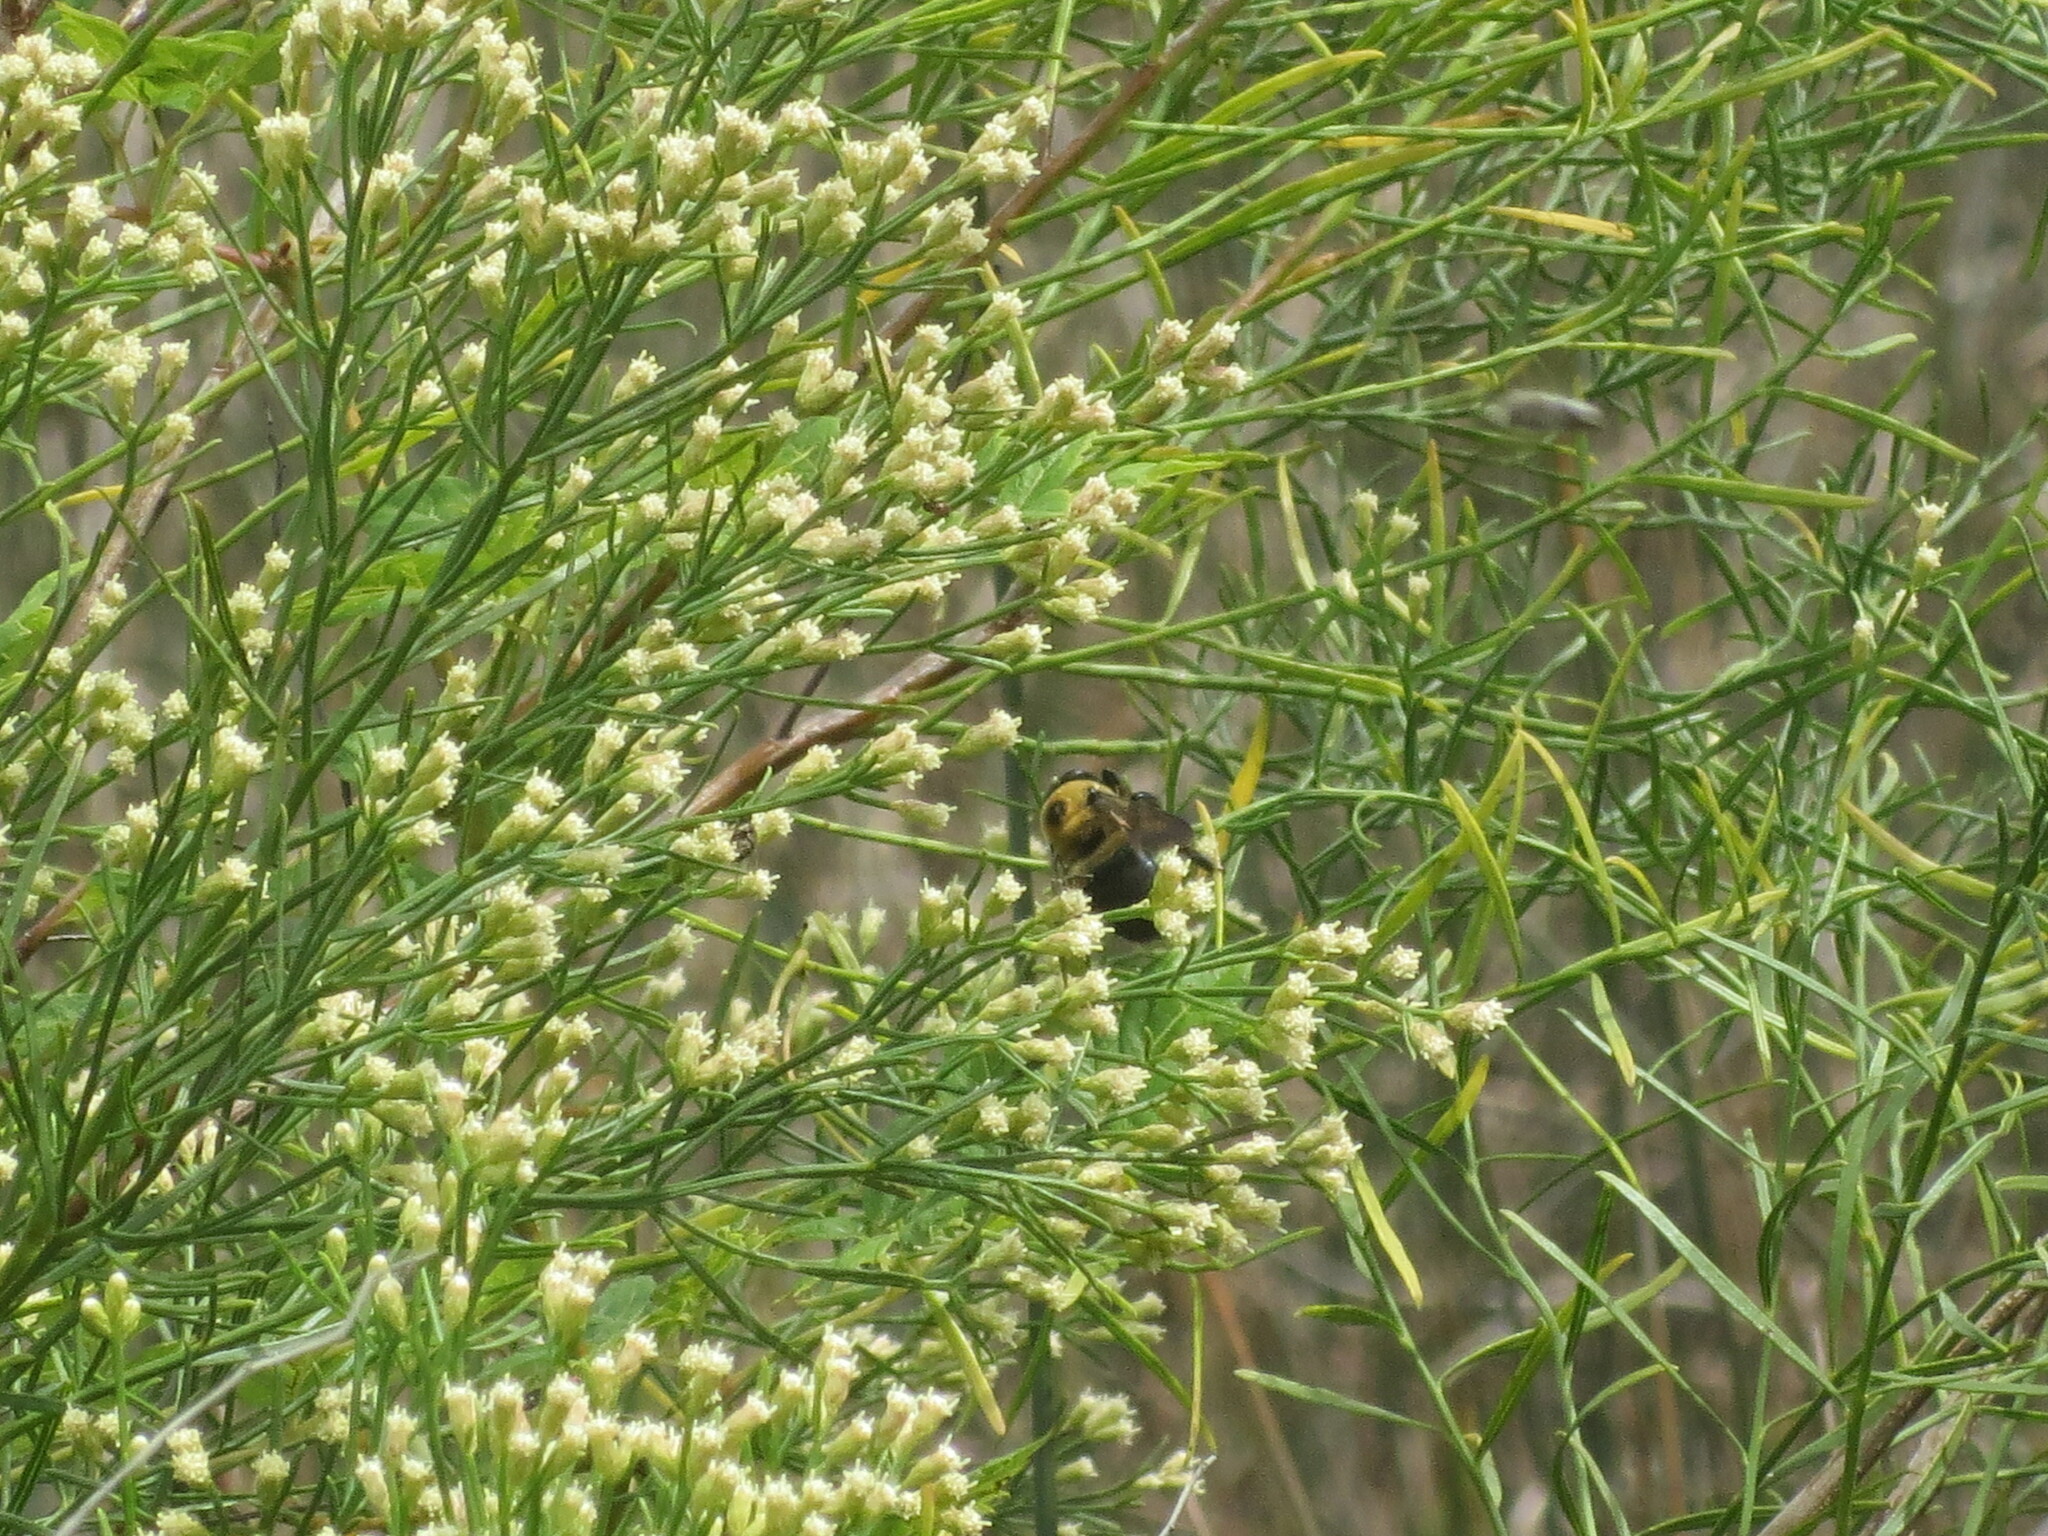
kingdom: Animalia
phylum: Arthropoda
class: Insecta
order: Hymenoptera
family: Apidae
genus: Xylocopa
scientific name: Xylocopa virginica
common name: Carpenter bee
